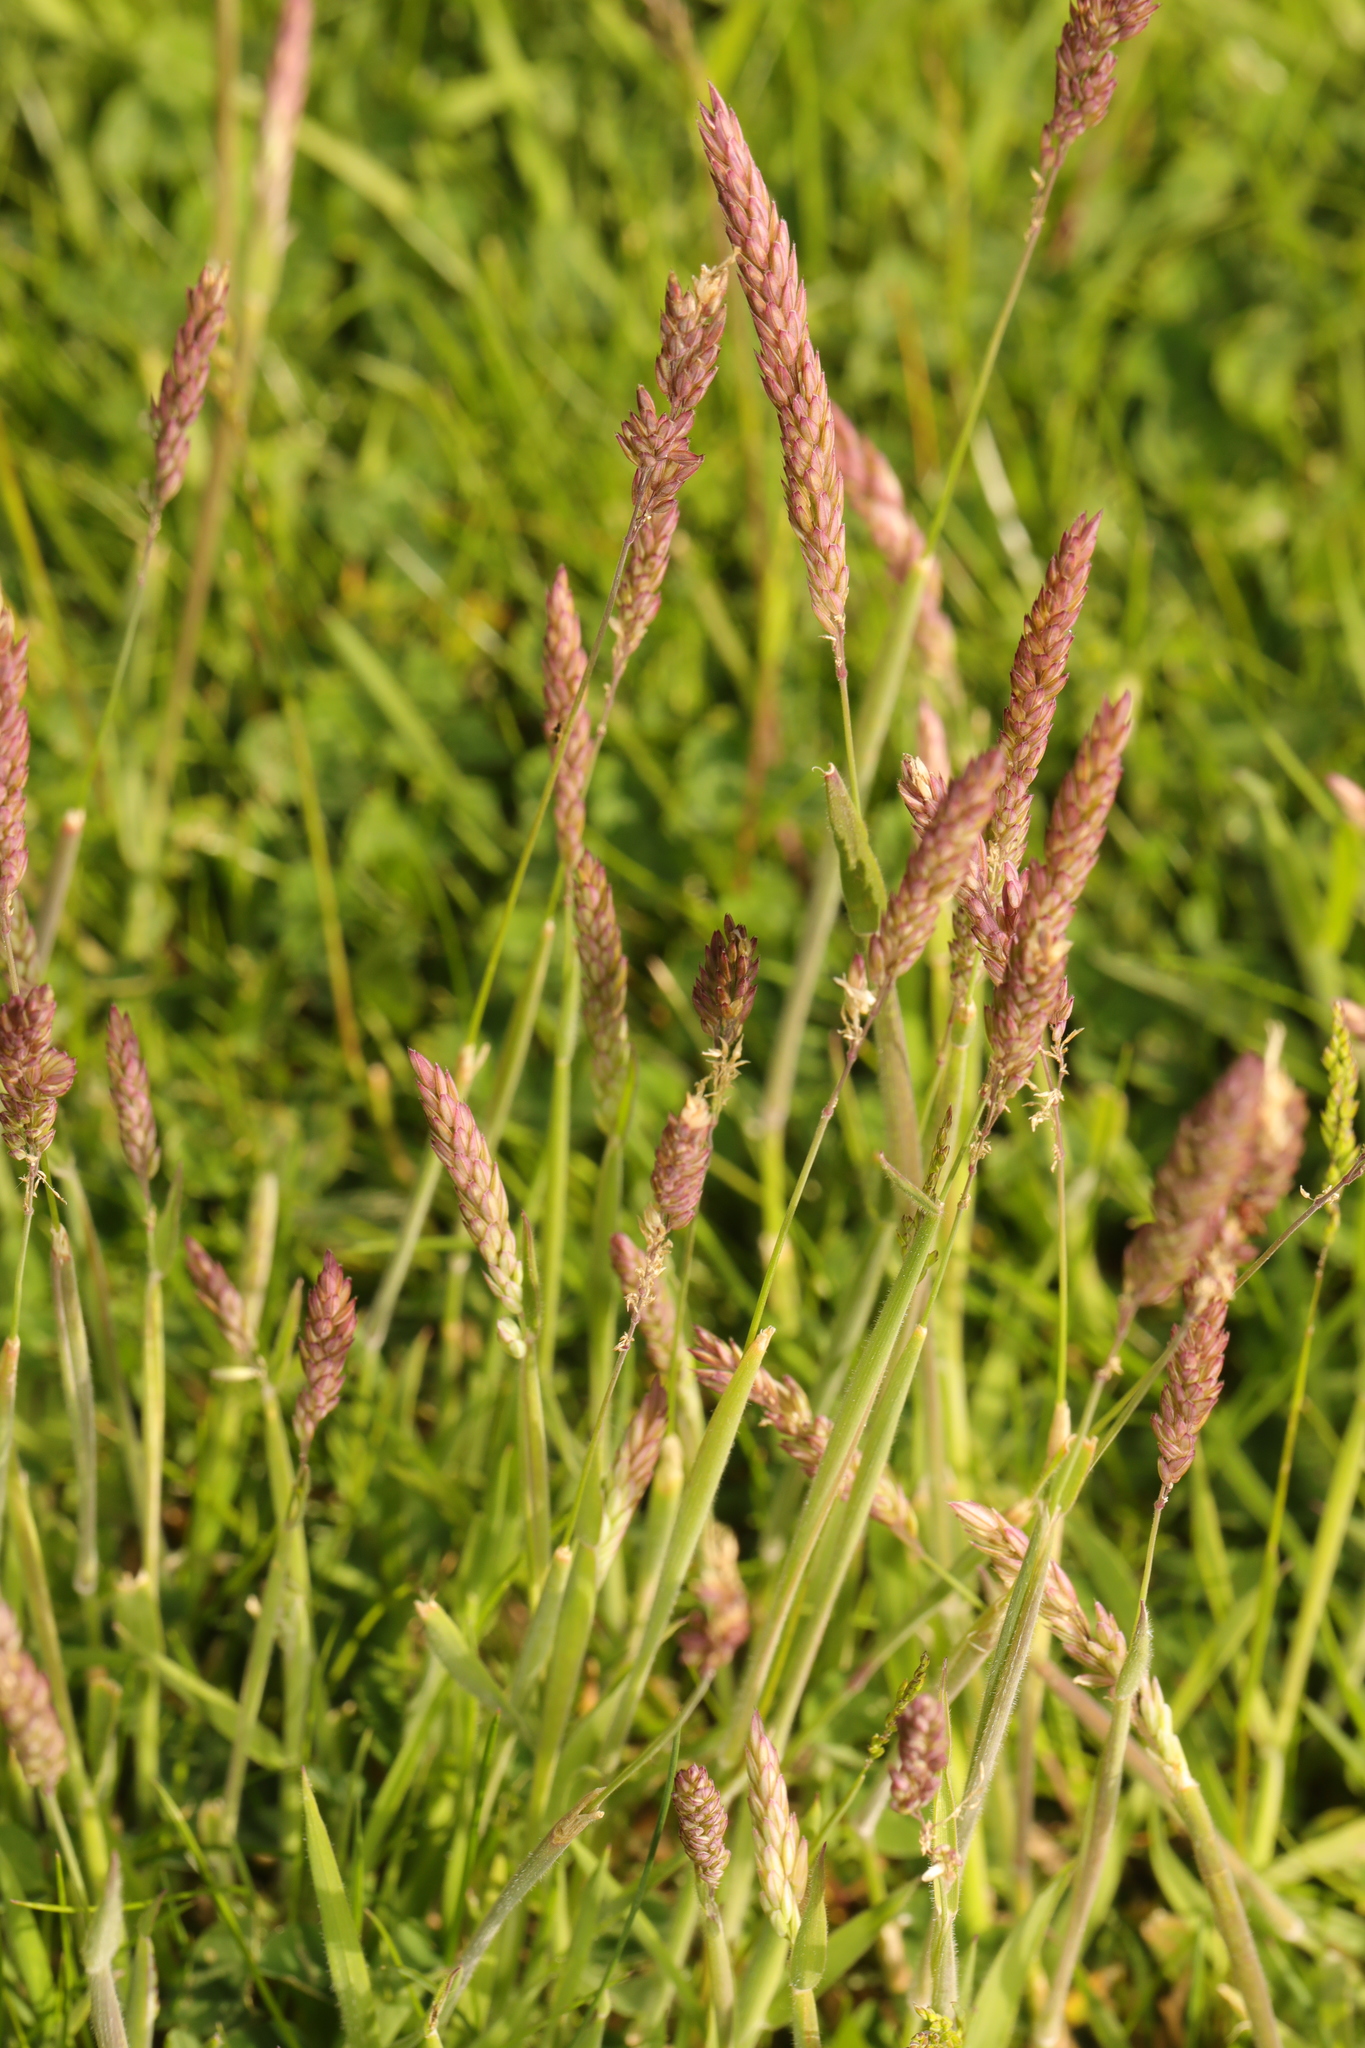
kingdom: Plantae
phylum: Tracheophyta
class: Liliopsida
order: Poales
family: Poaceae
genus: Holcus
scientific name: Holcus lanatus
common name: Yorkshire-fog
